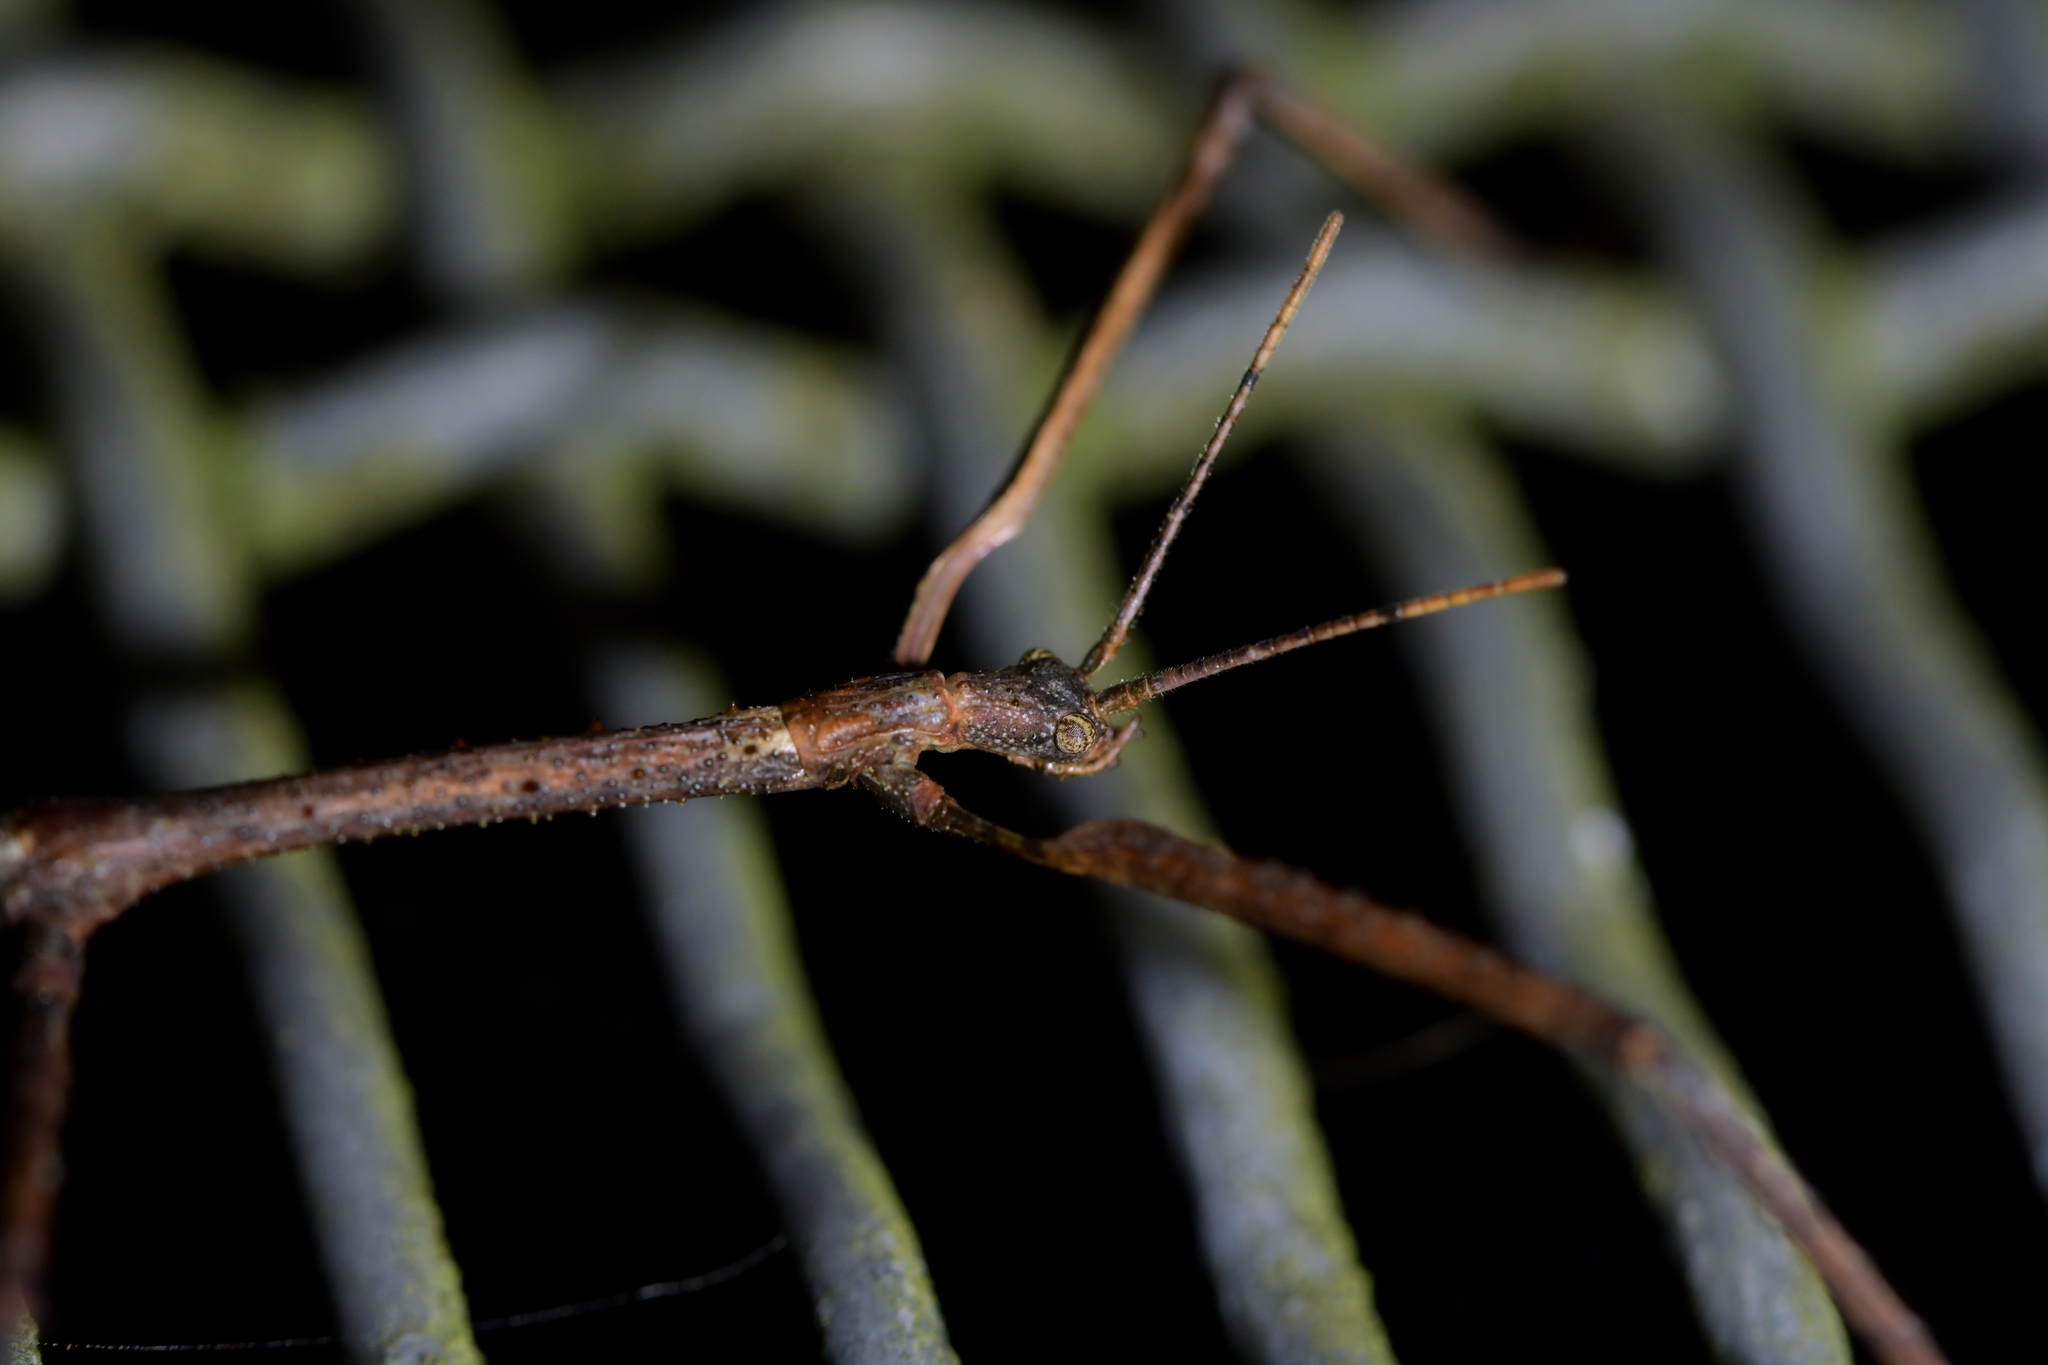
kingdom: Animalia
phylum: Arthropoda
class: Insecta
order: Phasmida
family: Phasmatidae
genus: Argosarchus
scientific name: Argosarchus horridus
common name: Bristly stick insect
